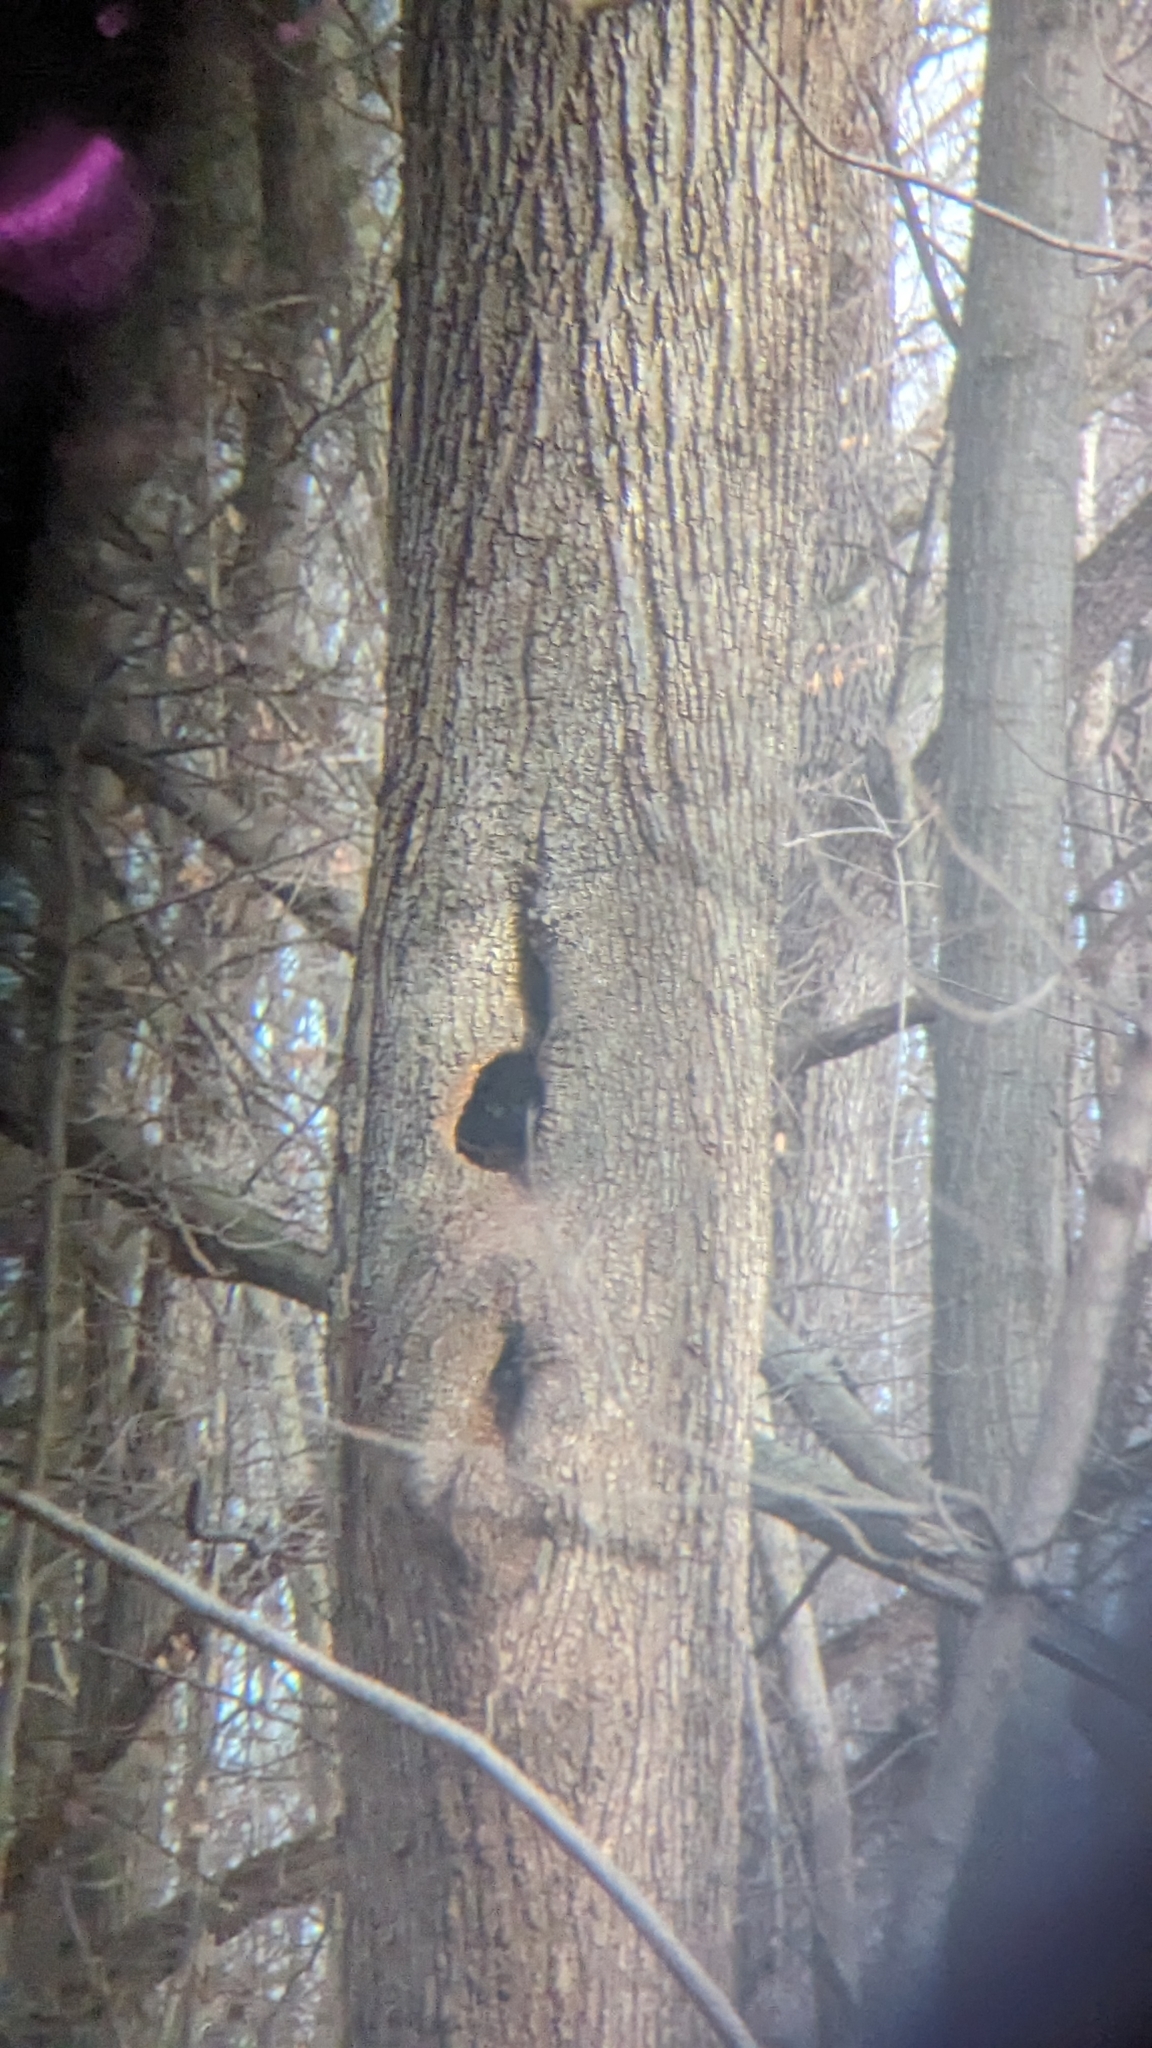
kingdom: Animalia
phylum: Chordata
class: Mammalia
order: Carnivora
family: Procyonidae
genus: Procyon
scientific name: Procyon lotor
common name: Raccoon
